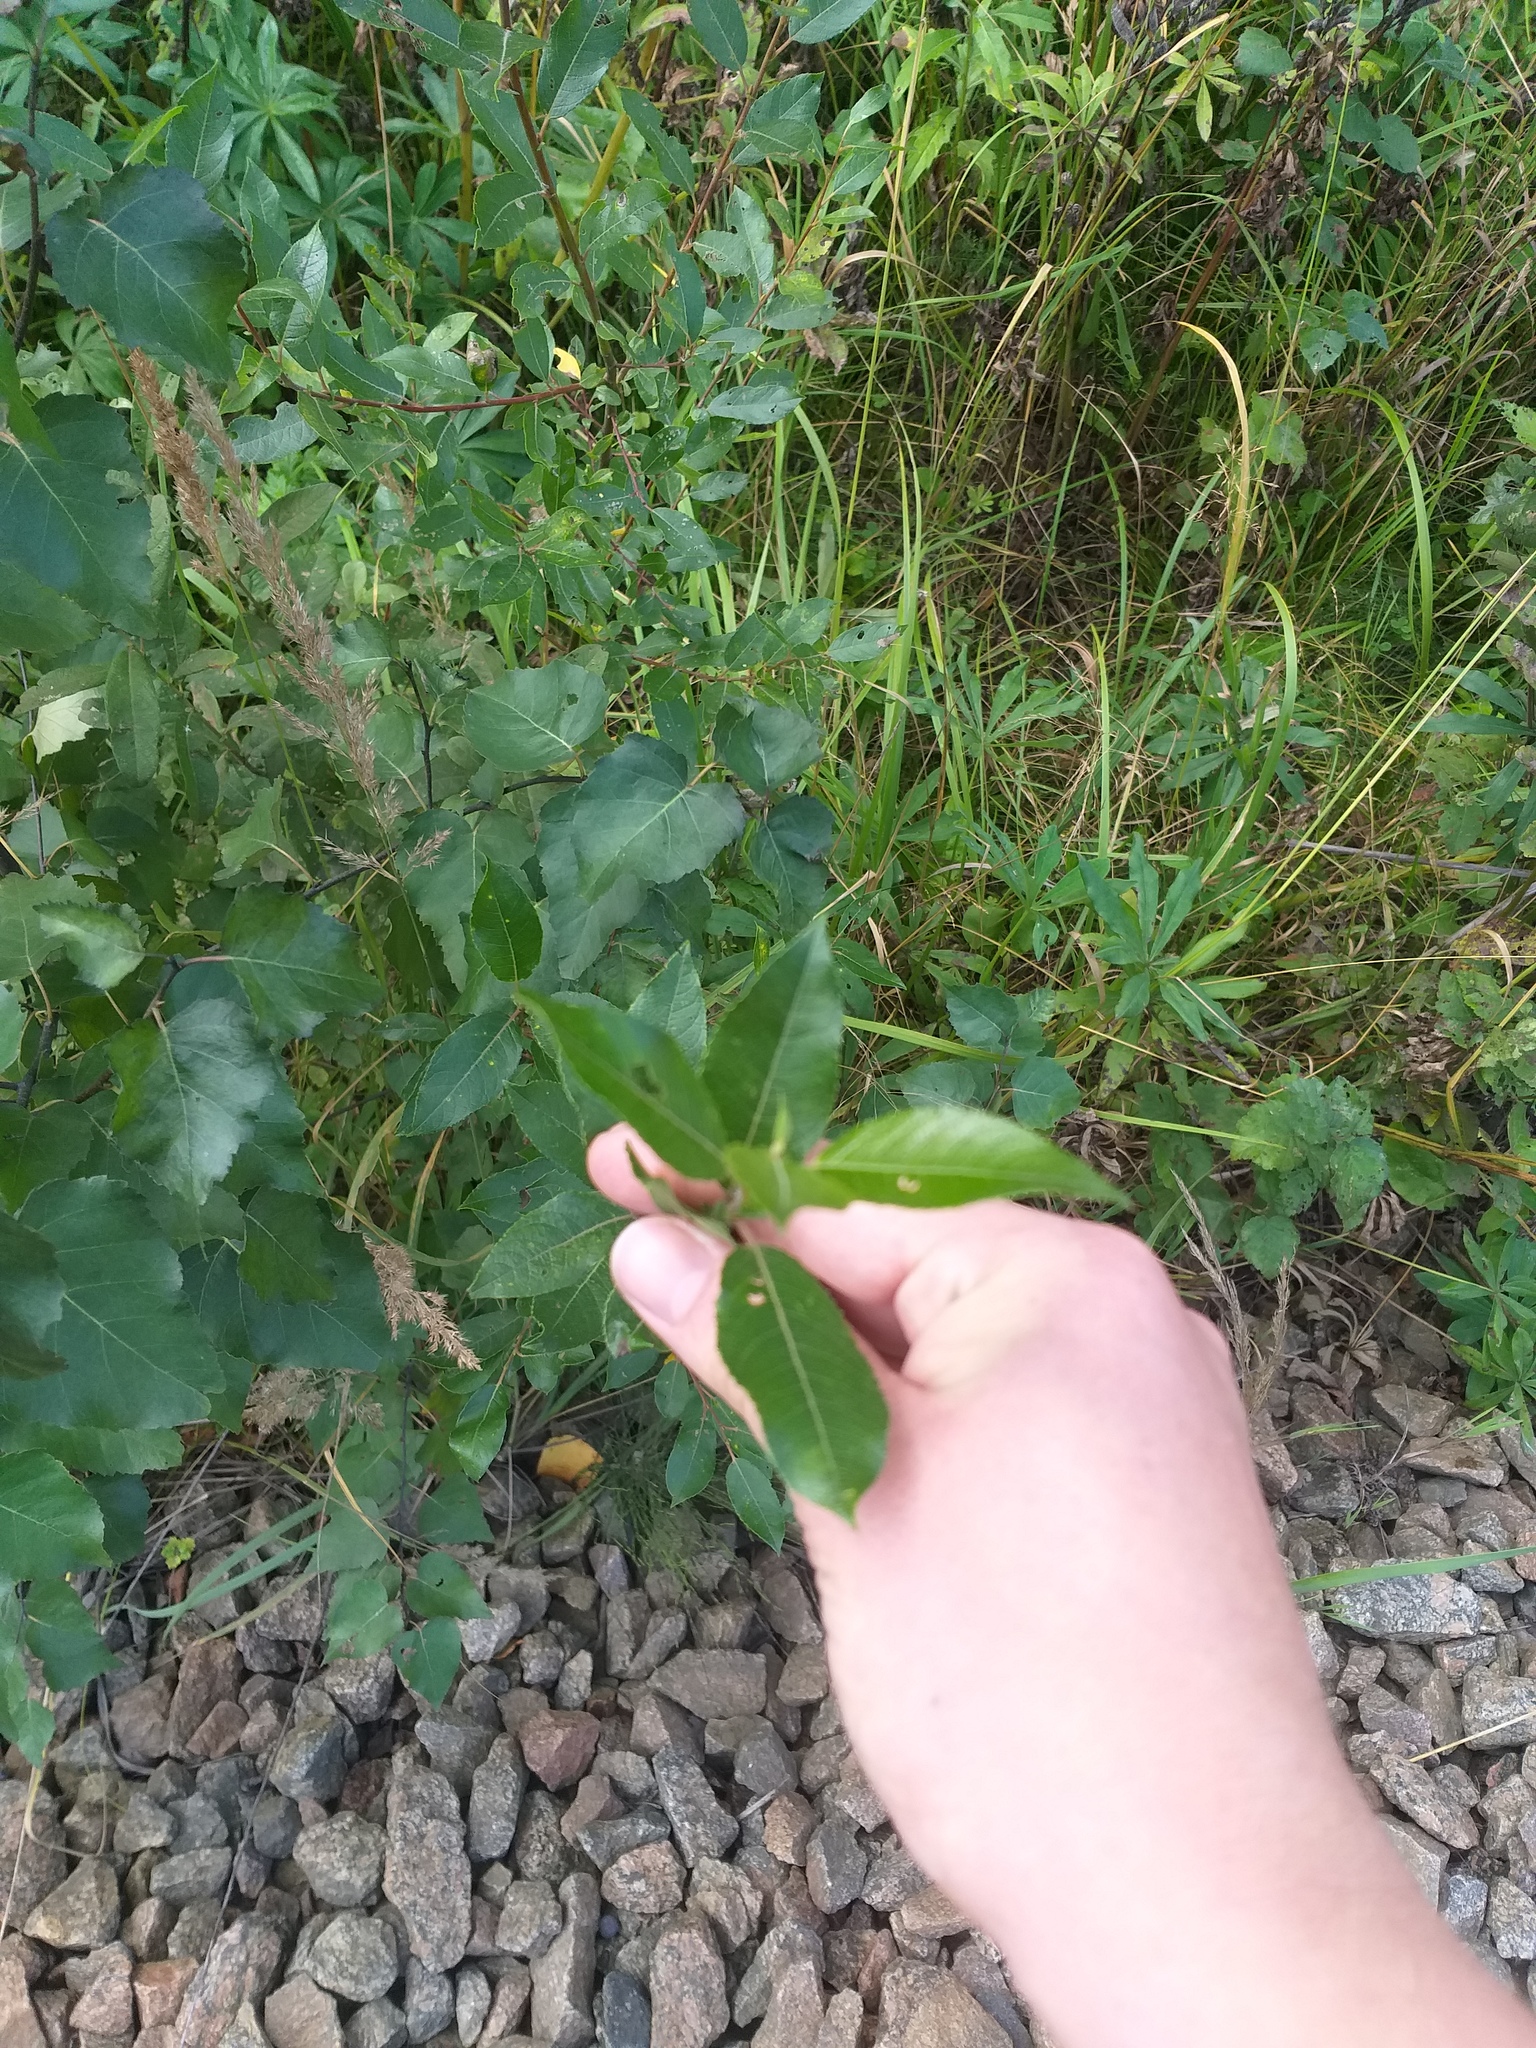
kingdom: Plantae
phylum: Tracheophyta
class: Magnoliopsida
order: Malpighiales
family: Salicaceae
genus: Salix
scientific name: Salix myrsinifolia
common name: Dark-leaved willow
